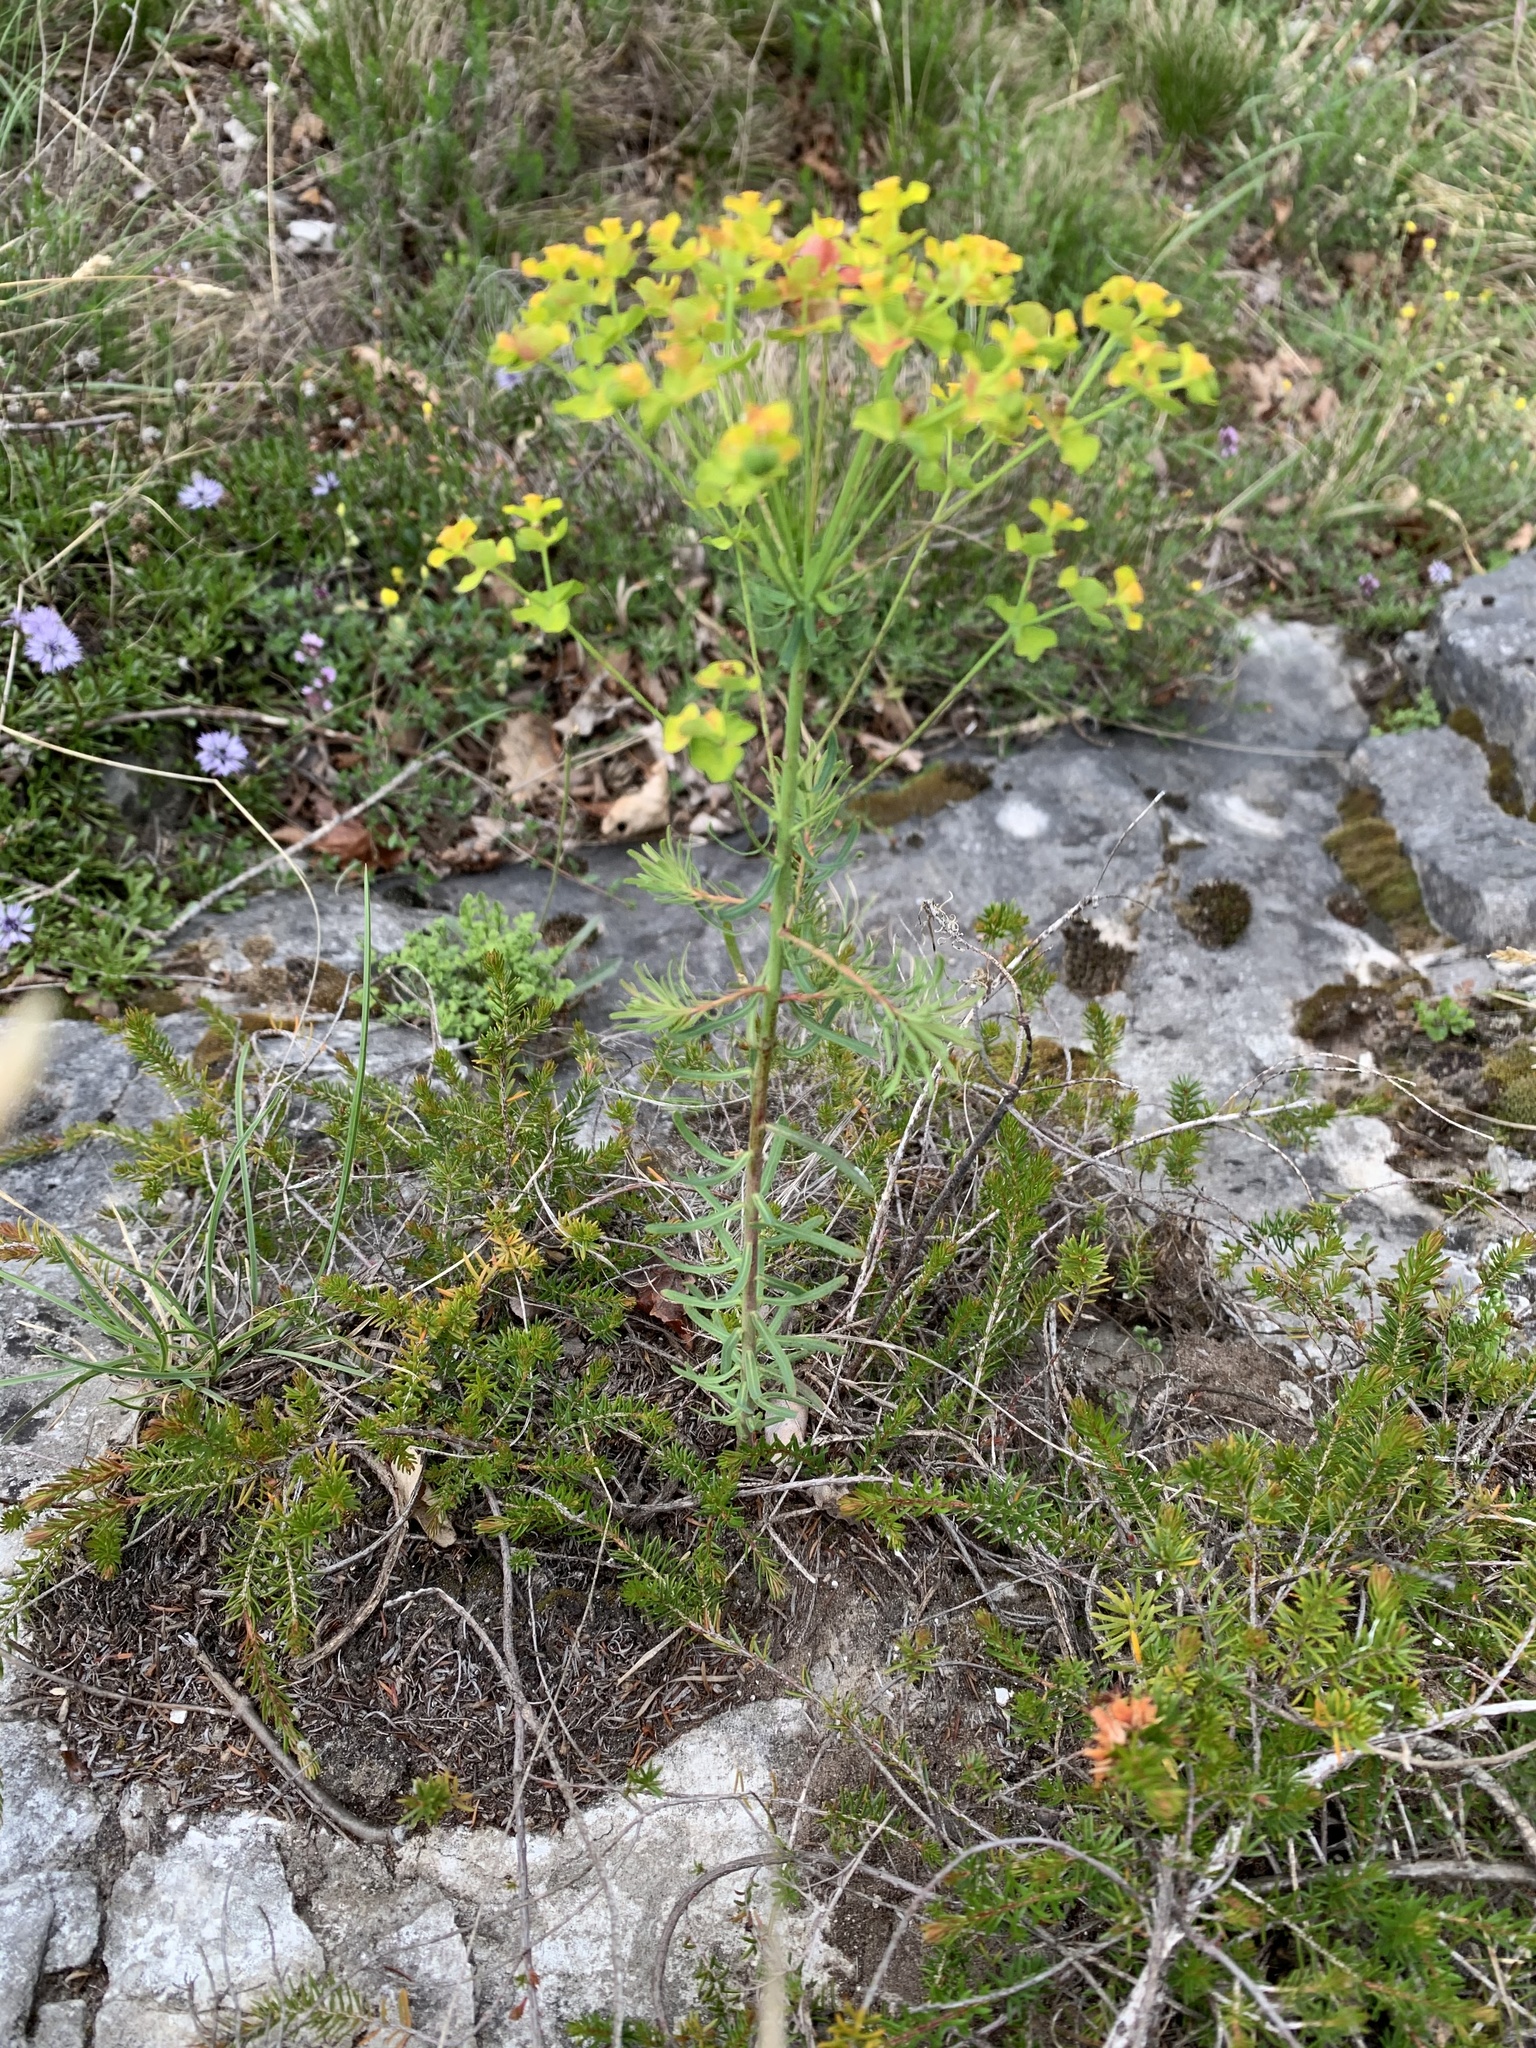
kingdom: Plantae
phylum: Tracheophyta
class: Magnoliopsida
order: Malpighiales
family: Euphorbiaceae
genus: Euphorbia
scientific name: Euphorbia cyparissias
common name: Cypress spurge
